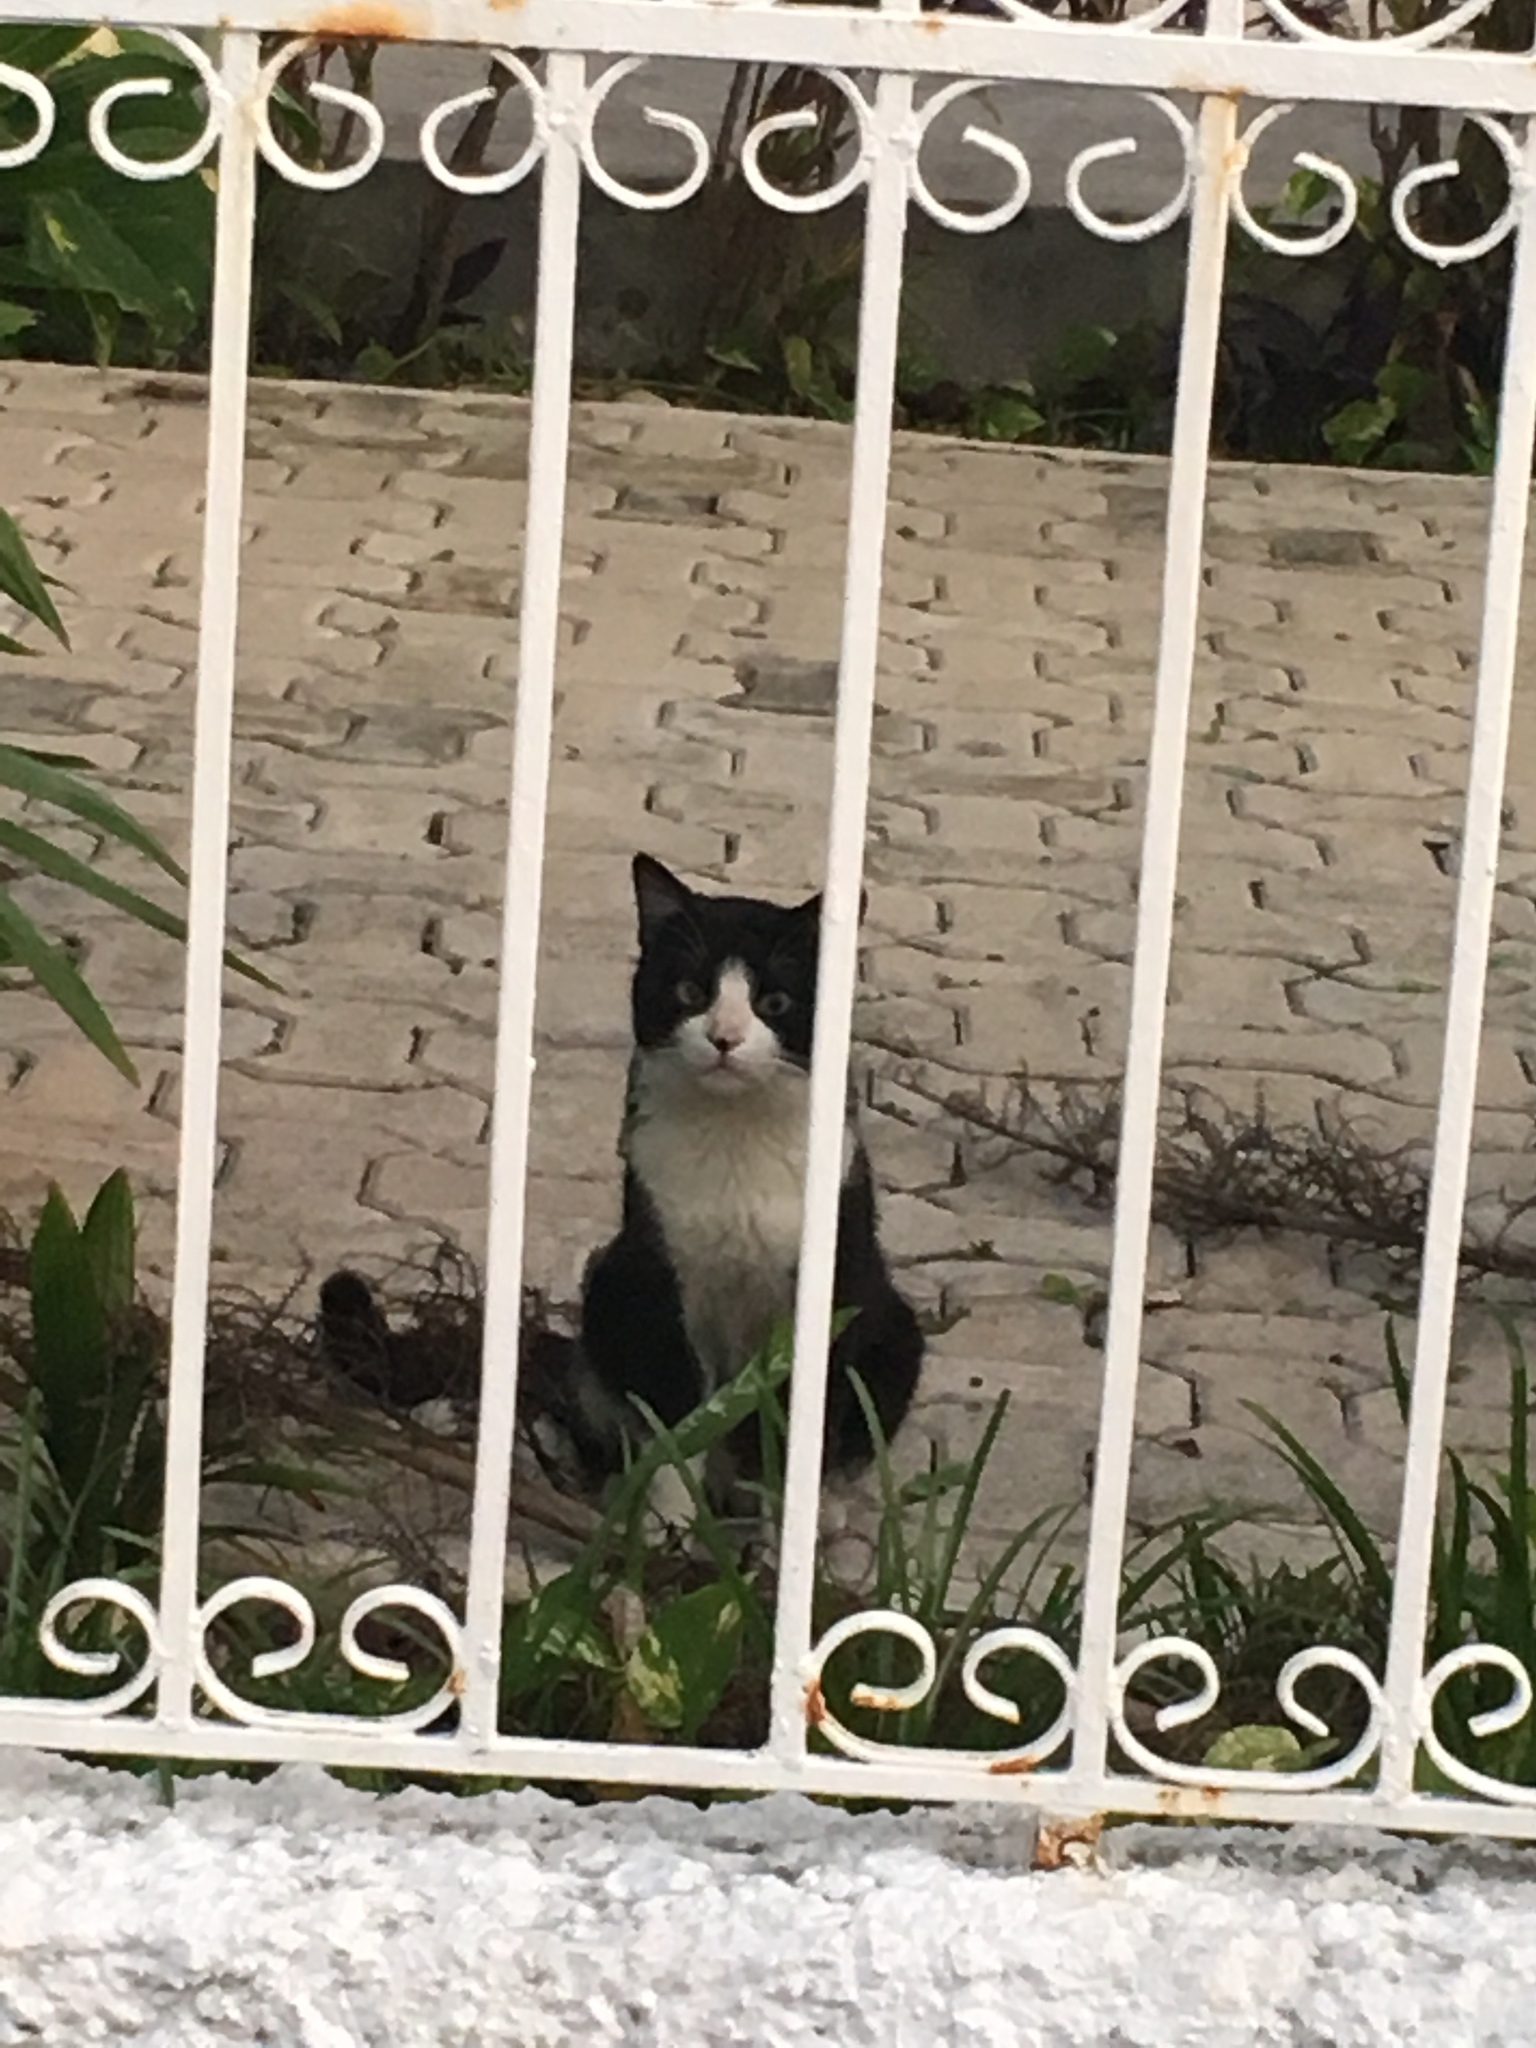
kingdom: Animalia
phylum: Chordata
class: Mammalia
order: Carnivora
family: Felidae
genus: Felis
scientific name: Felis catus
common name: Domestic cat
